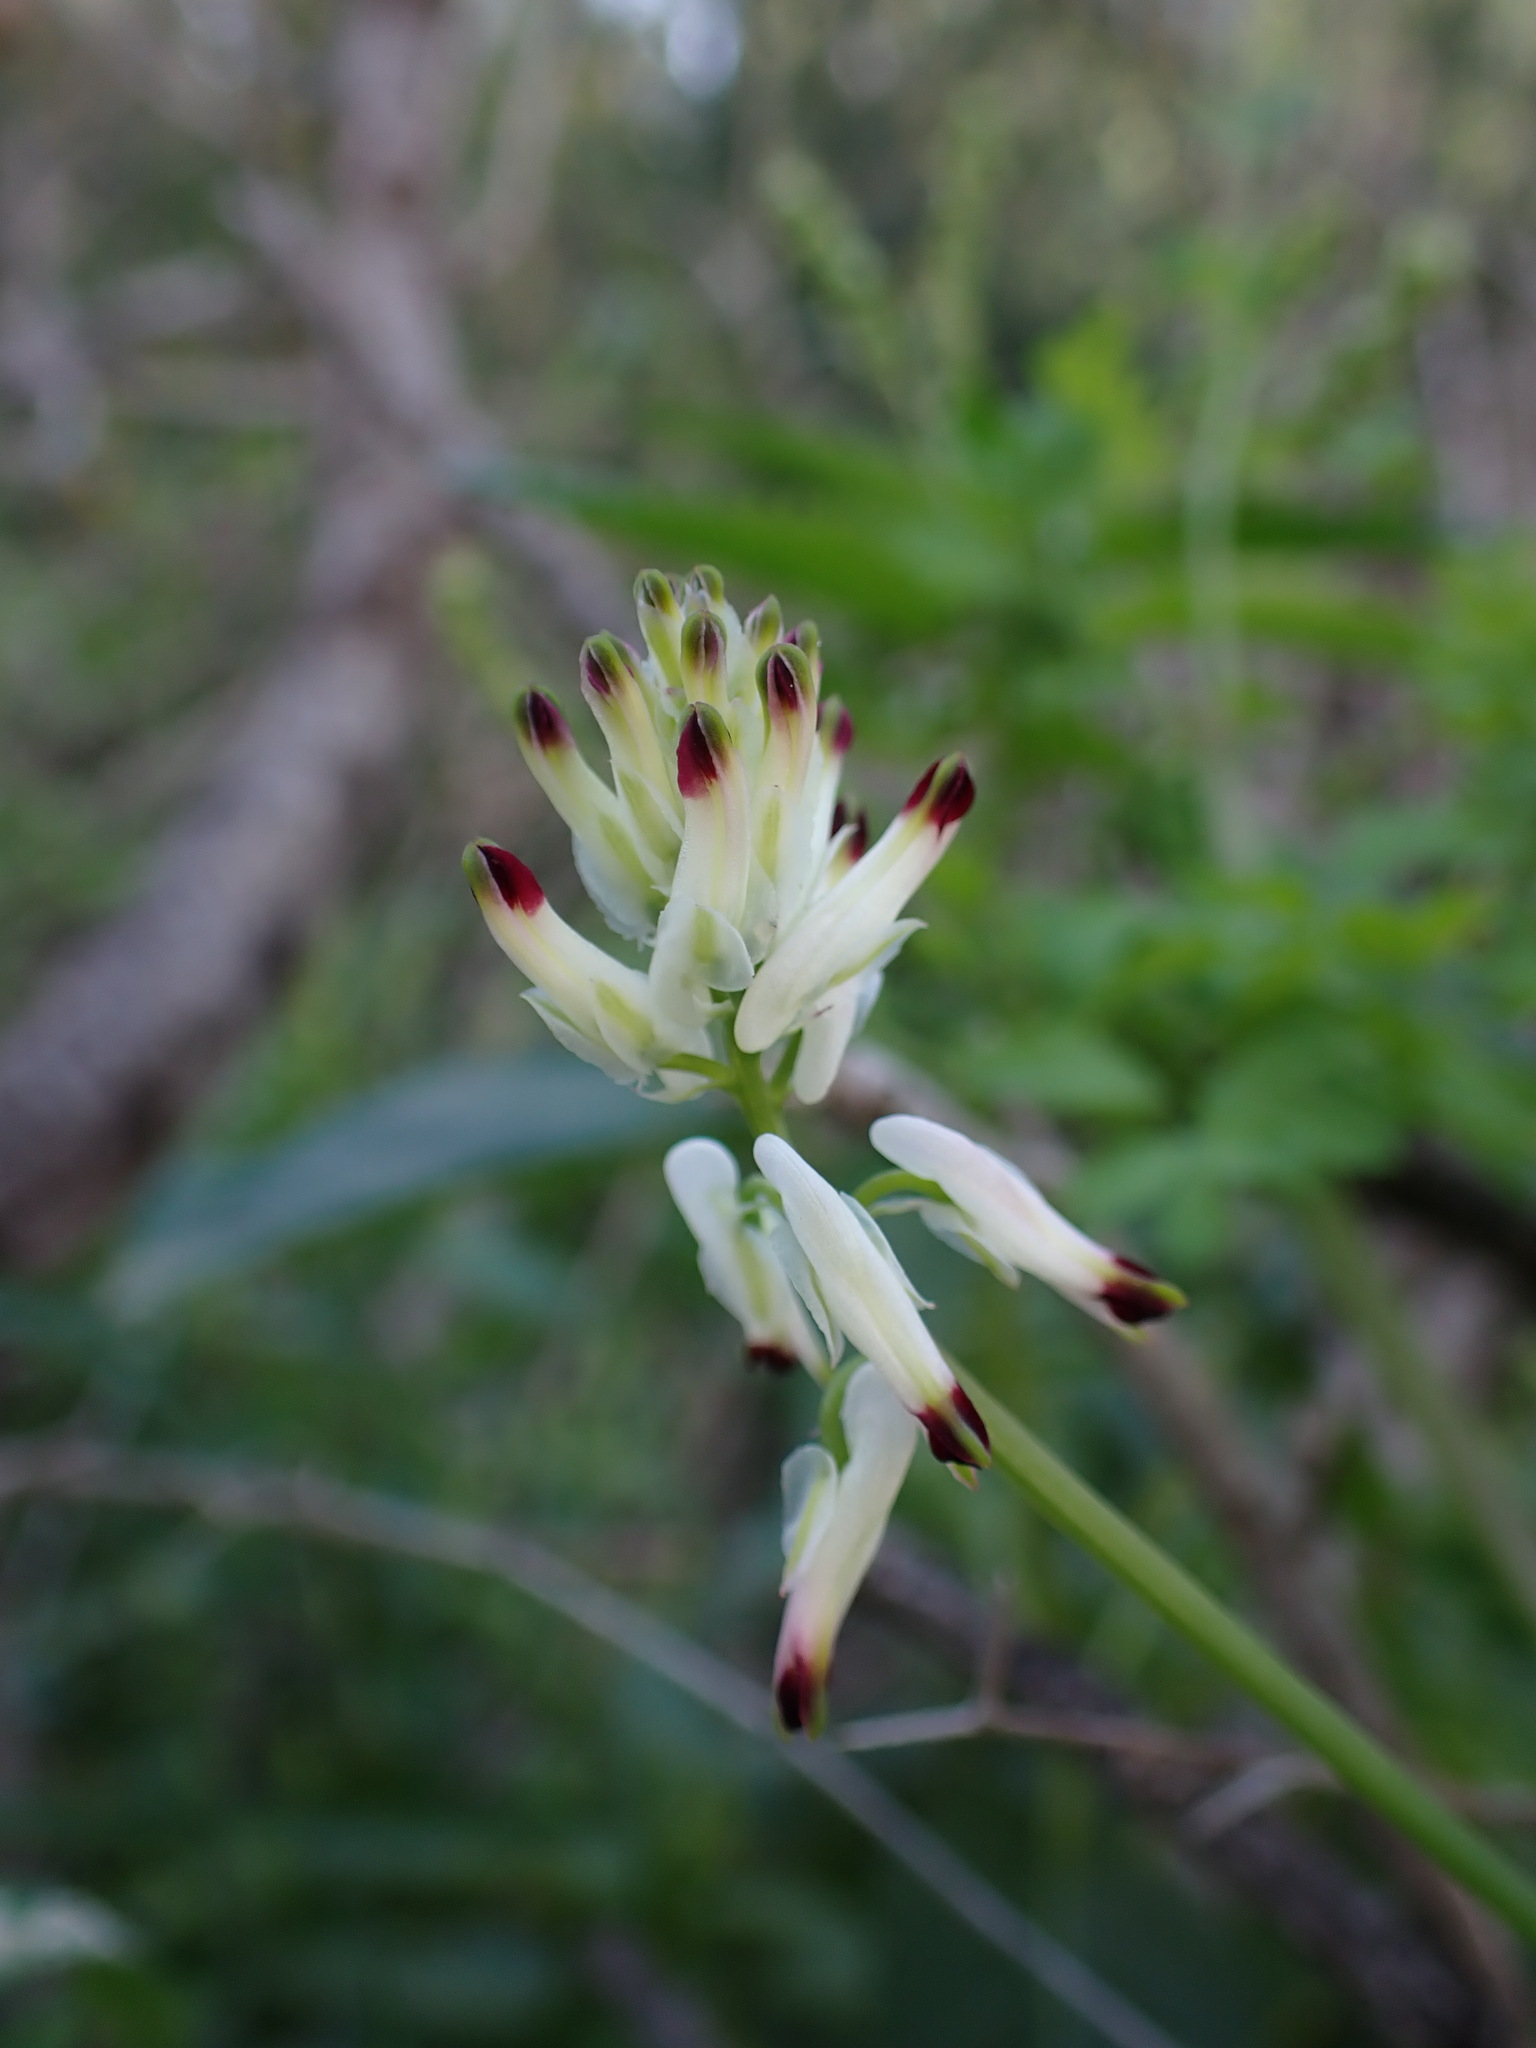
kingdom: Plantae
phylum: Tracheophyta
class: Magnoliopsida
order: Ranunculales
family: Papaveraceae
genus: Fumaria
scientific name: Fumaria capreolata
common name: White ramping-fumitory
